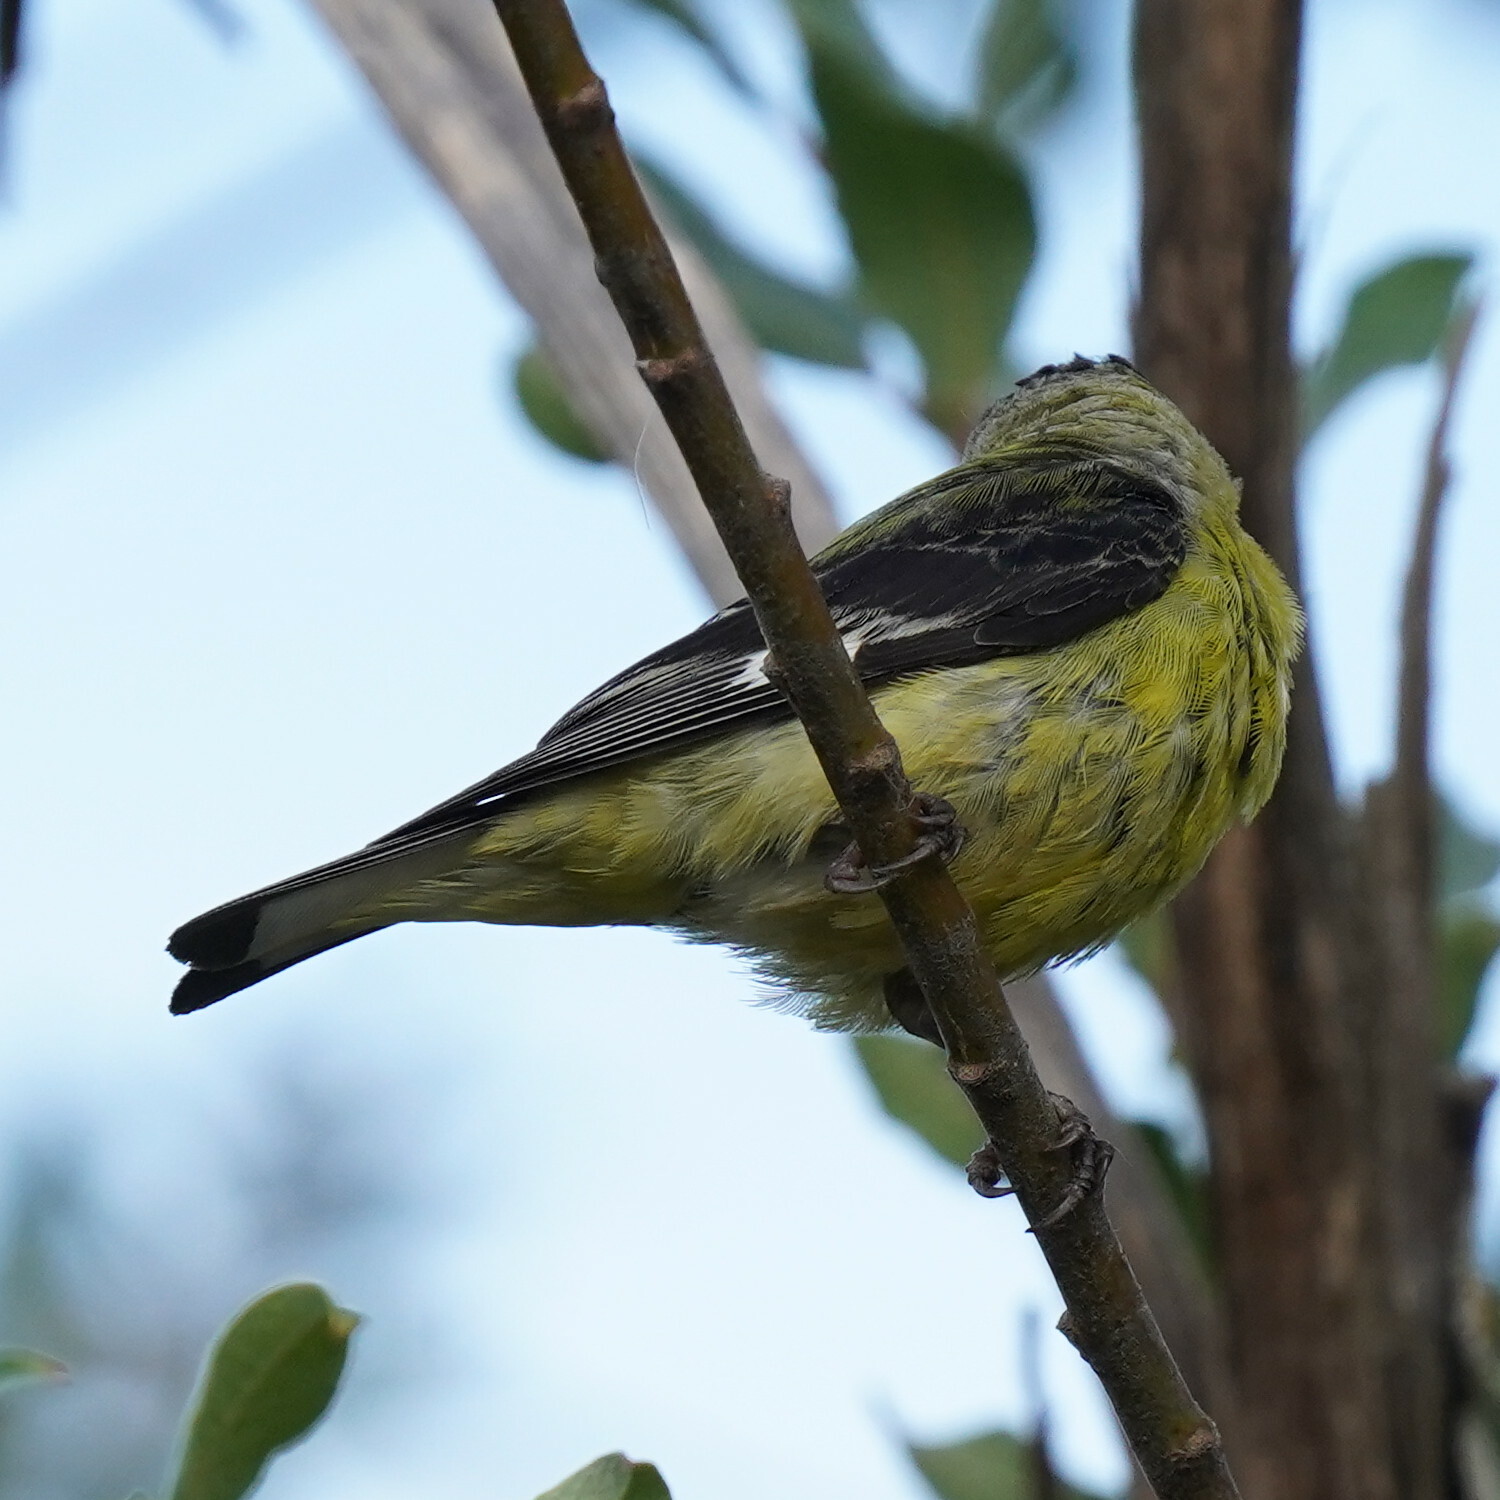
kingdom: Animalia
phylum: Chordata
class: Aves
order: Passeriformes
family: Fringillidae
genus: Spinus
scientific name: Spinus psaltria
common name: Lesser goldfinch
